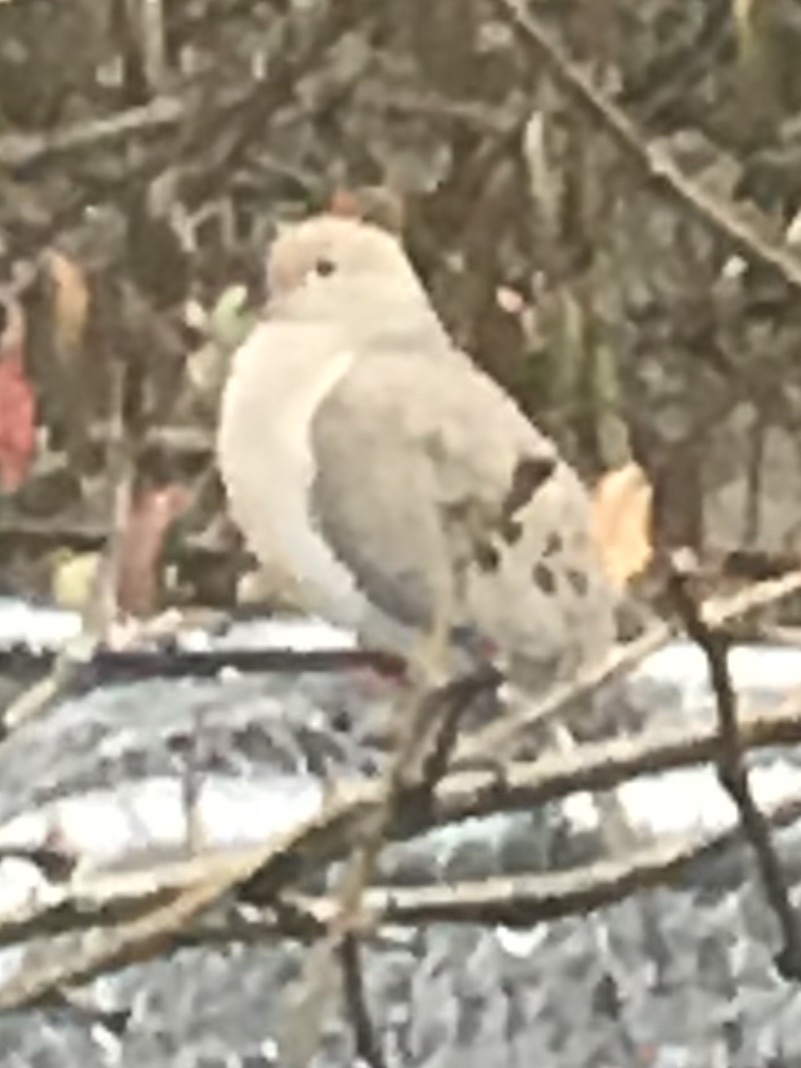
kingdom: Animalia
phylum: Chordata
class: Aves
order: Columbiformes
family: Columbidae
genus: Zenaida
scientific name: Zenaida macroura
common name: Mourning dove
